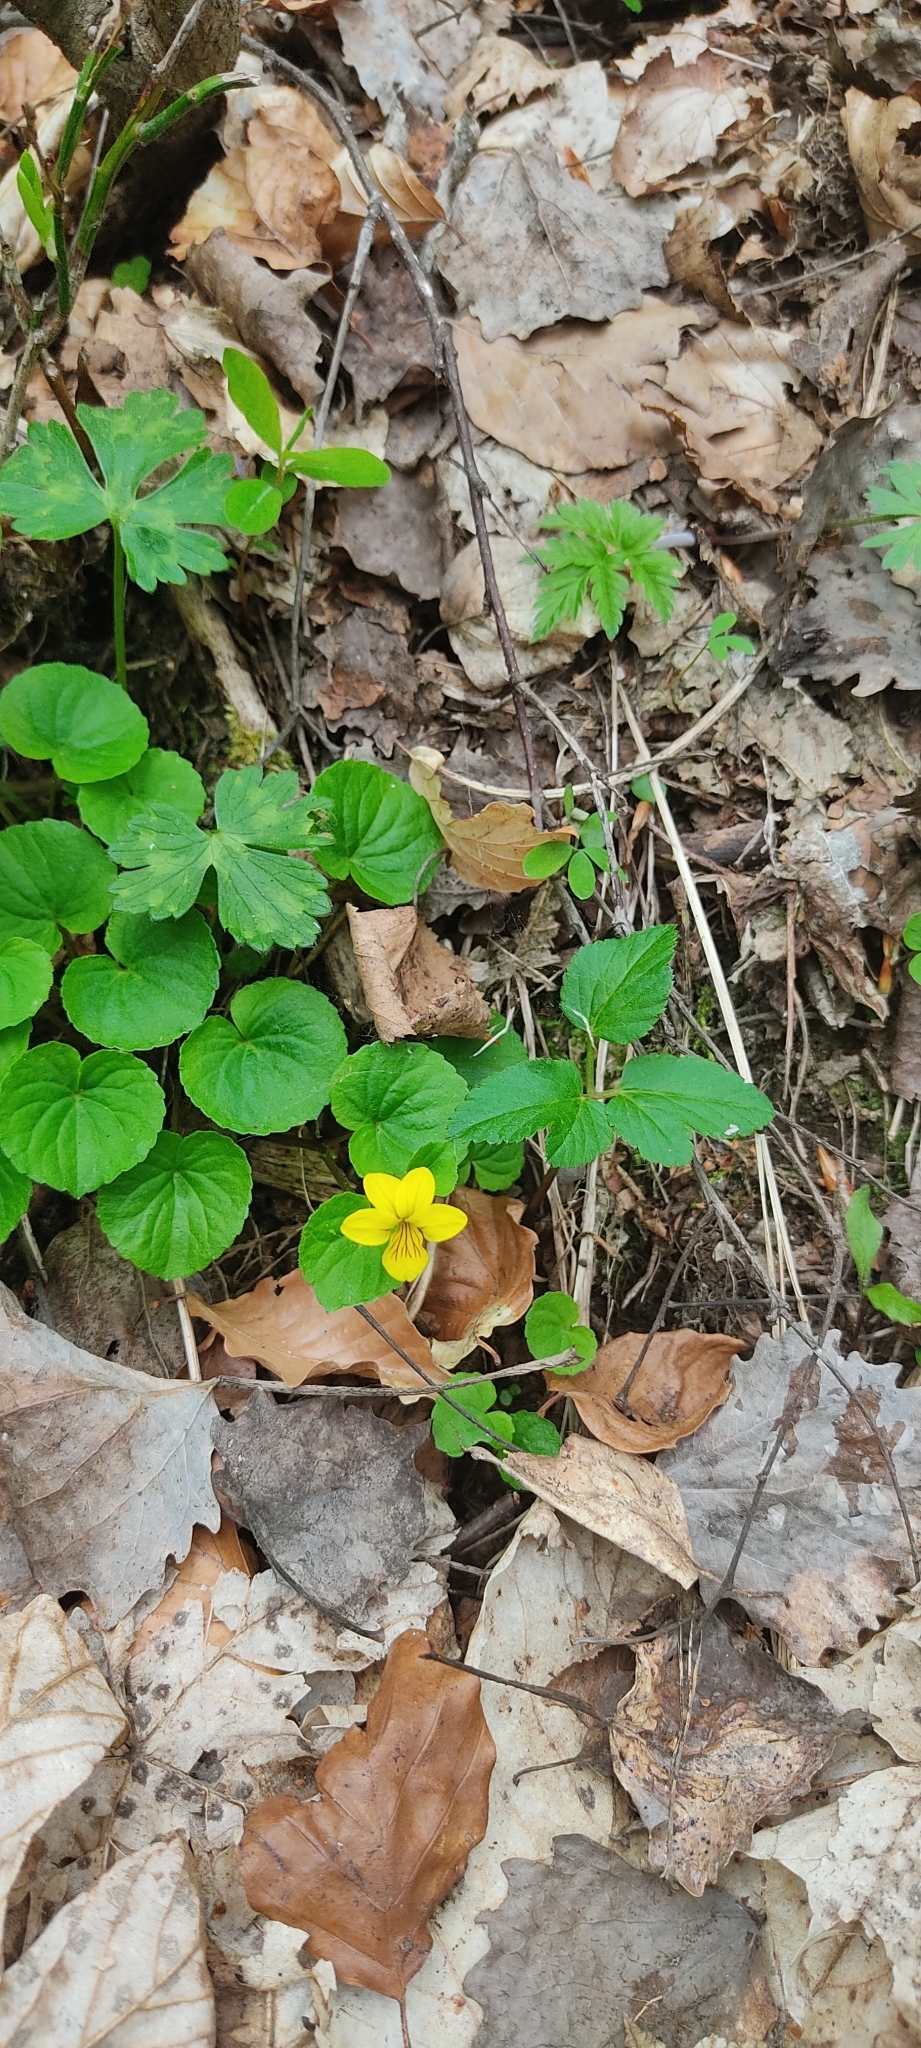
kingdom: Plantae
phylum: Tracheophyta
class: Magnoliopsida
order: Malpighiales
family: Violaceae
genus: Viola
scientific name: Viola biflora
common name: Alpine yellow violet
